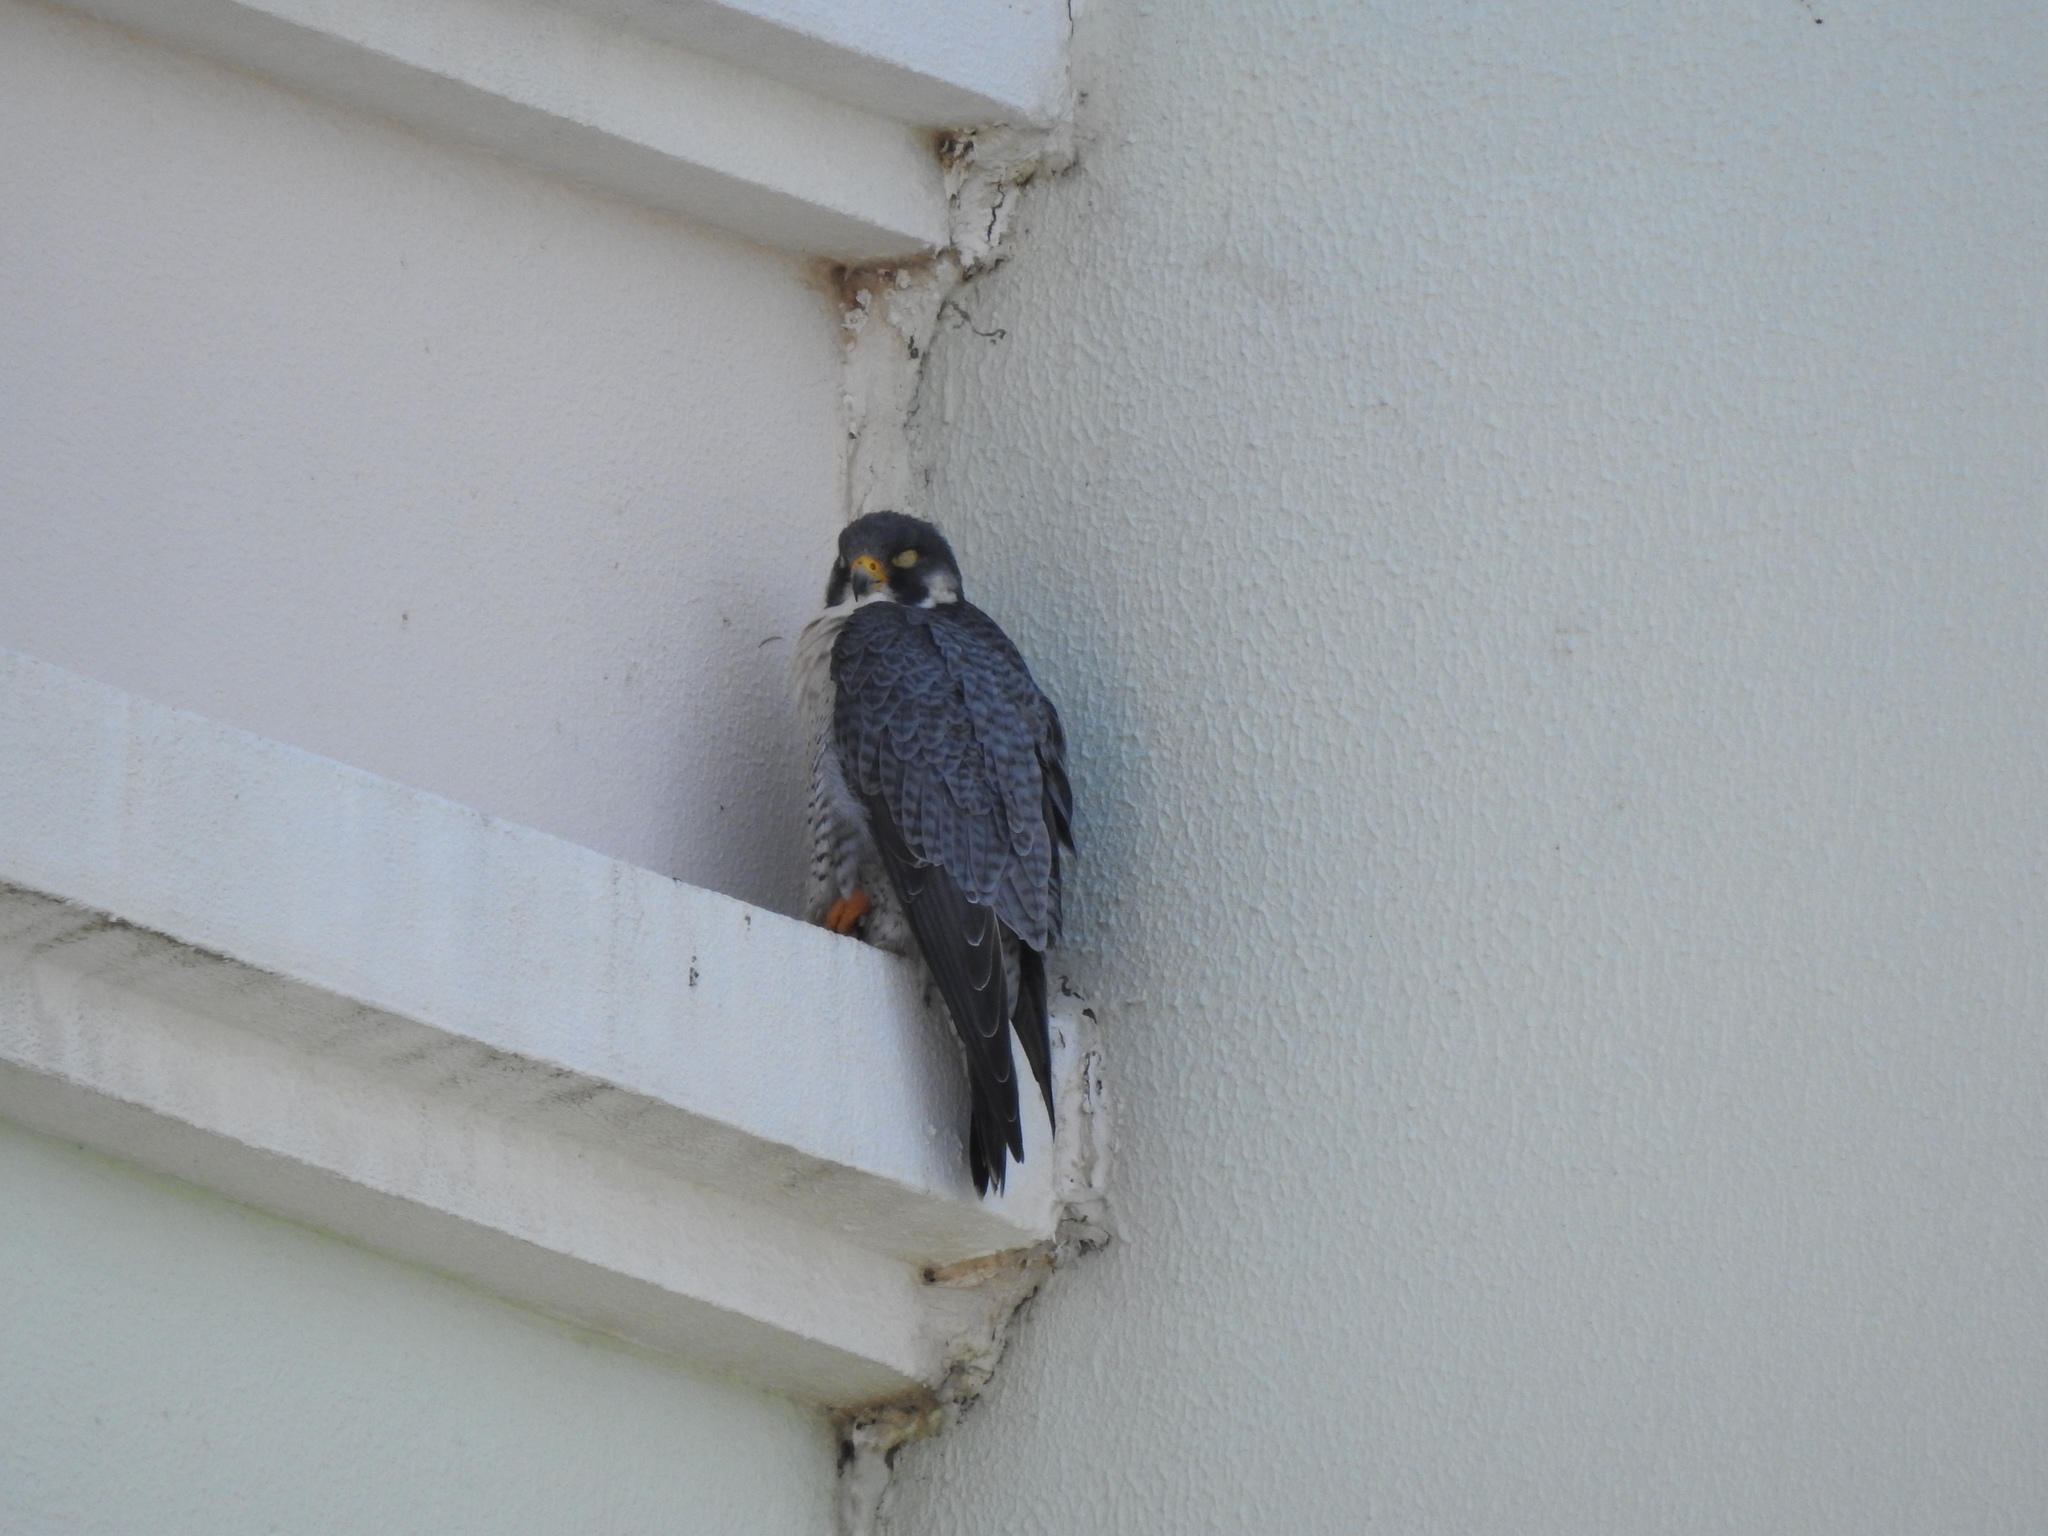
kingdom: Animalia
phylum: Chordata
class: Aves
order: Falconiformes
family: Falconidae
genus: Falco
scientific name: Falco peregrinus
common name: Peregrine falcon
